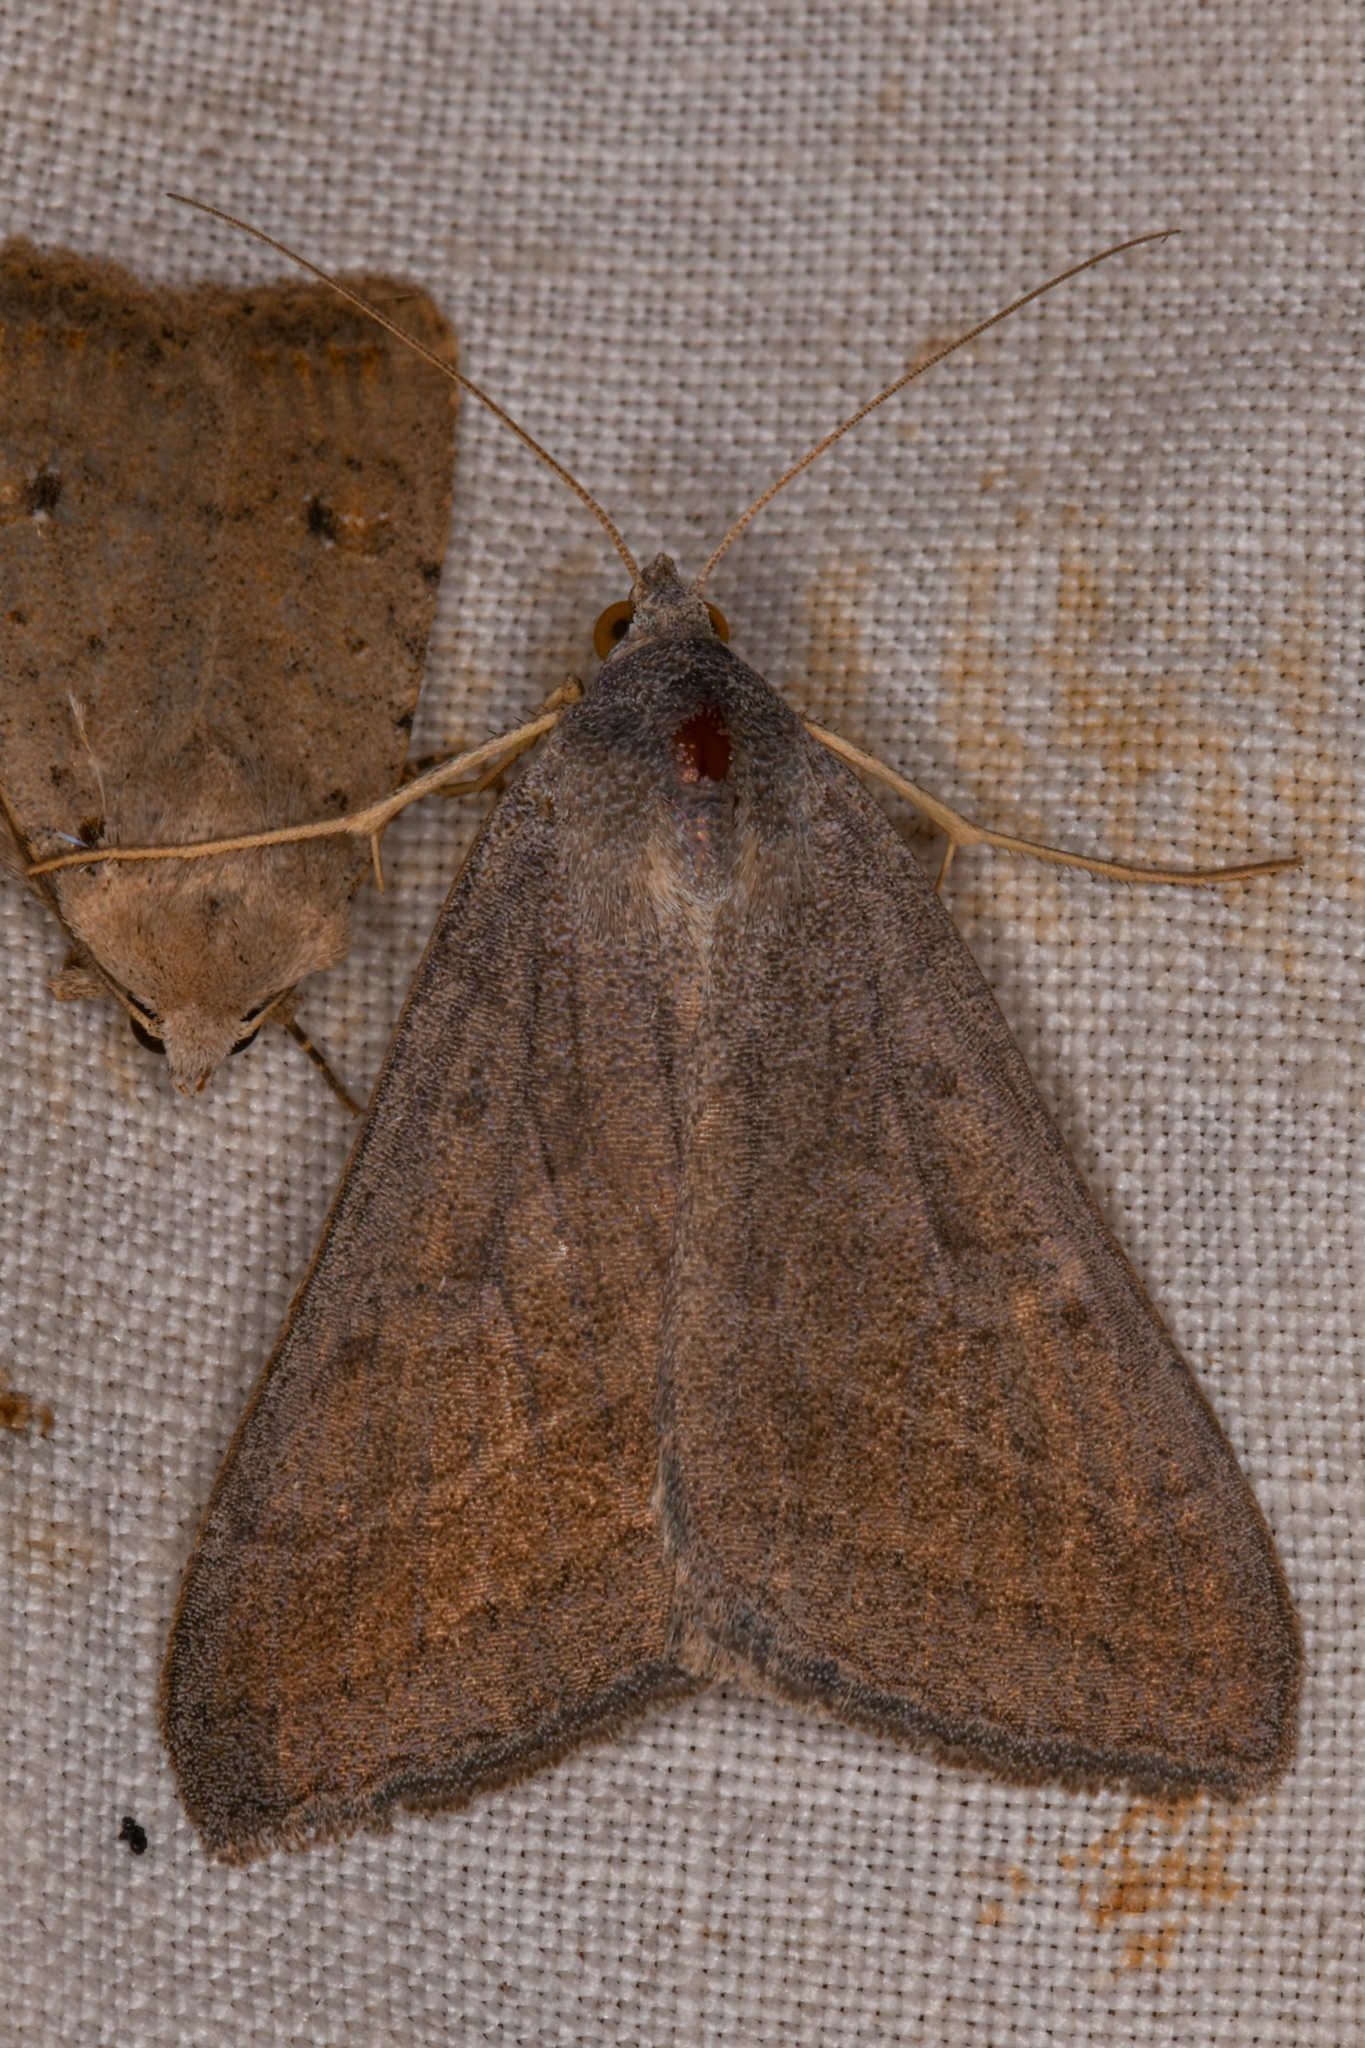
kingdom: Animalia
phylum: Arthropoda
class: Insecta
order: Lepidoptera
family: Erebidae
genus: Caenurgia
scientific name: Caenurgia togataria
